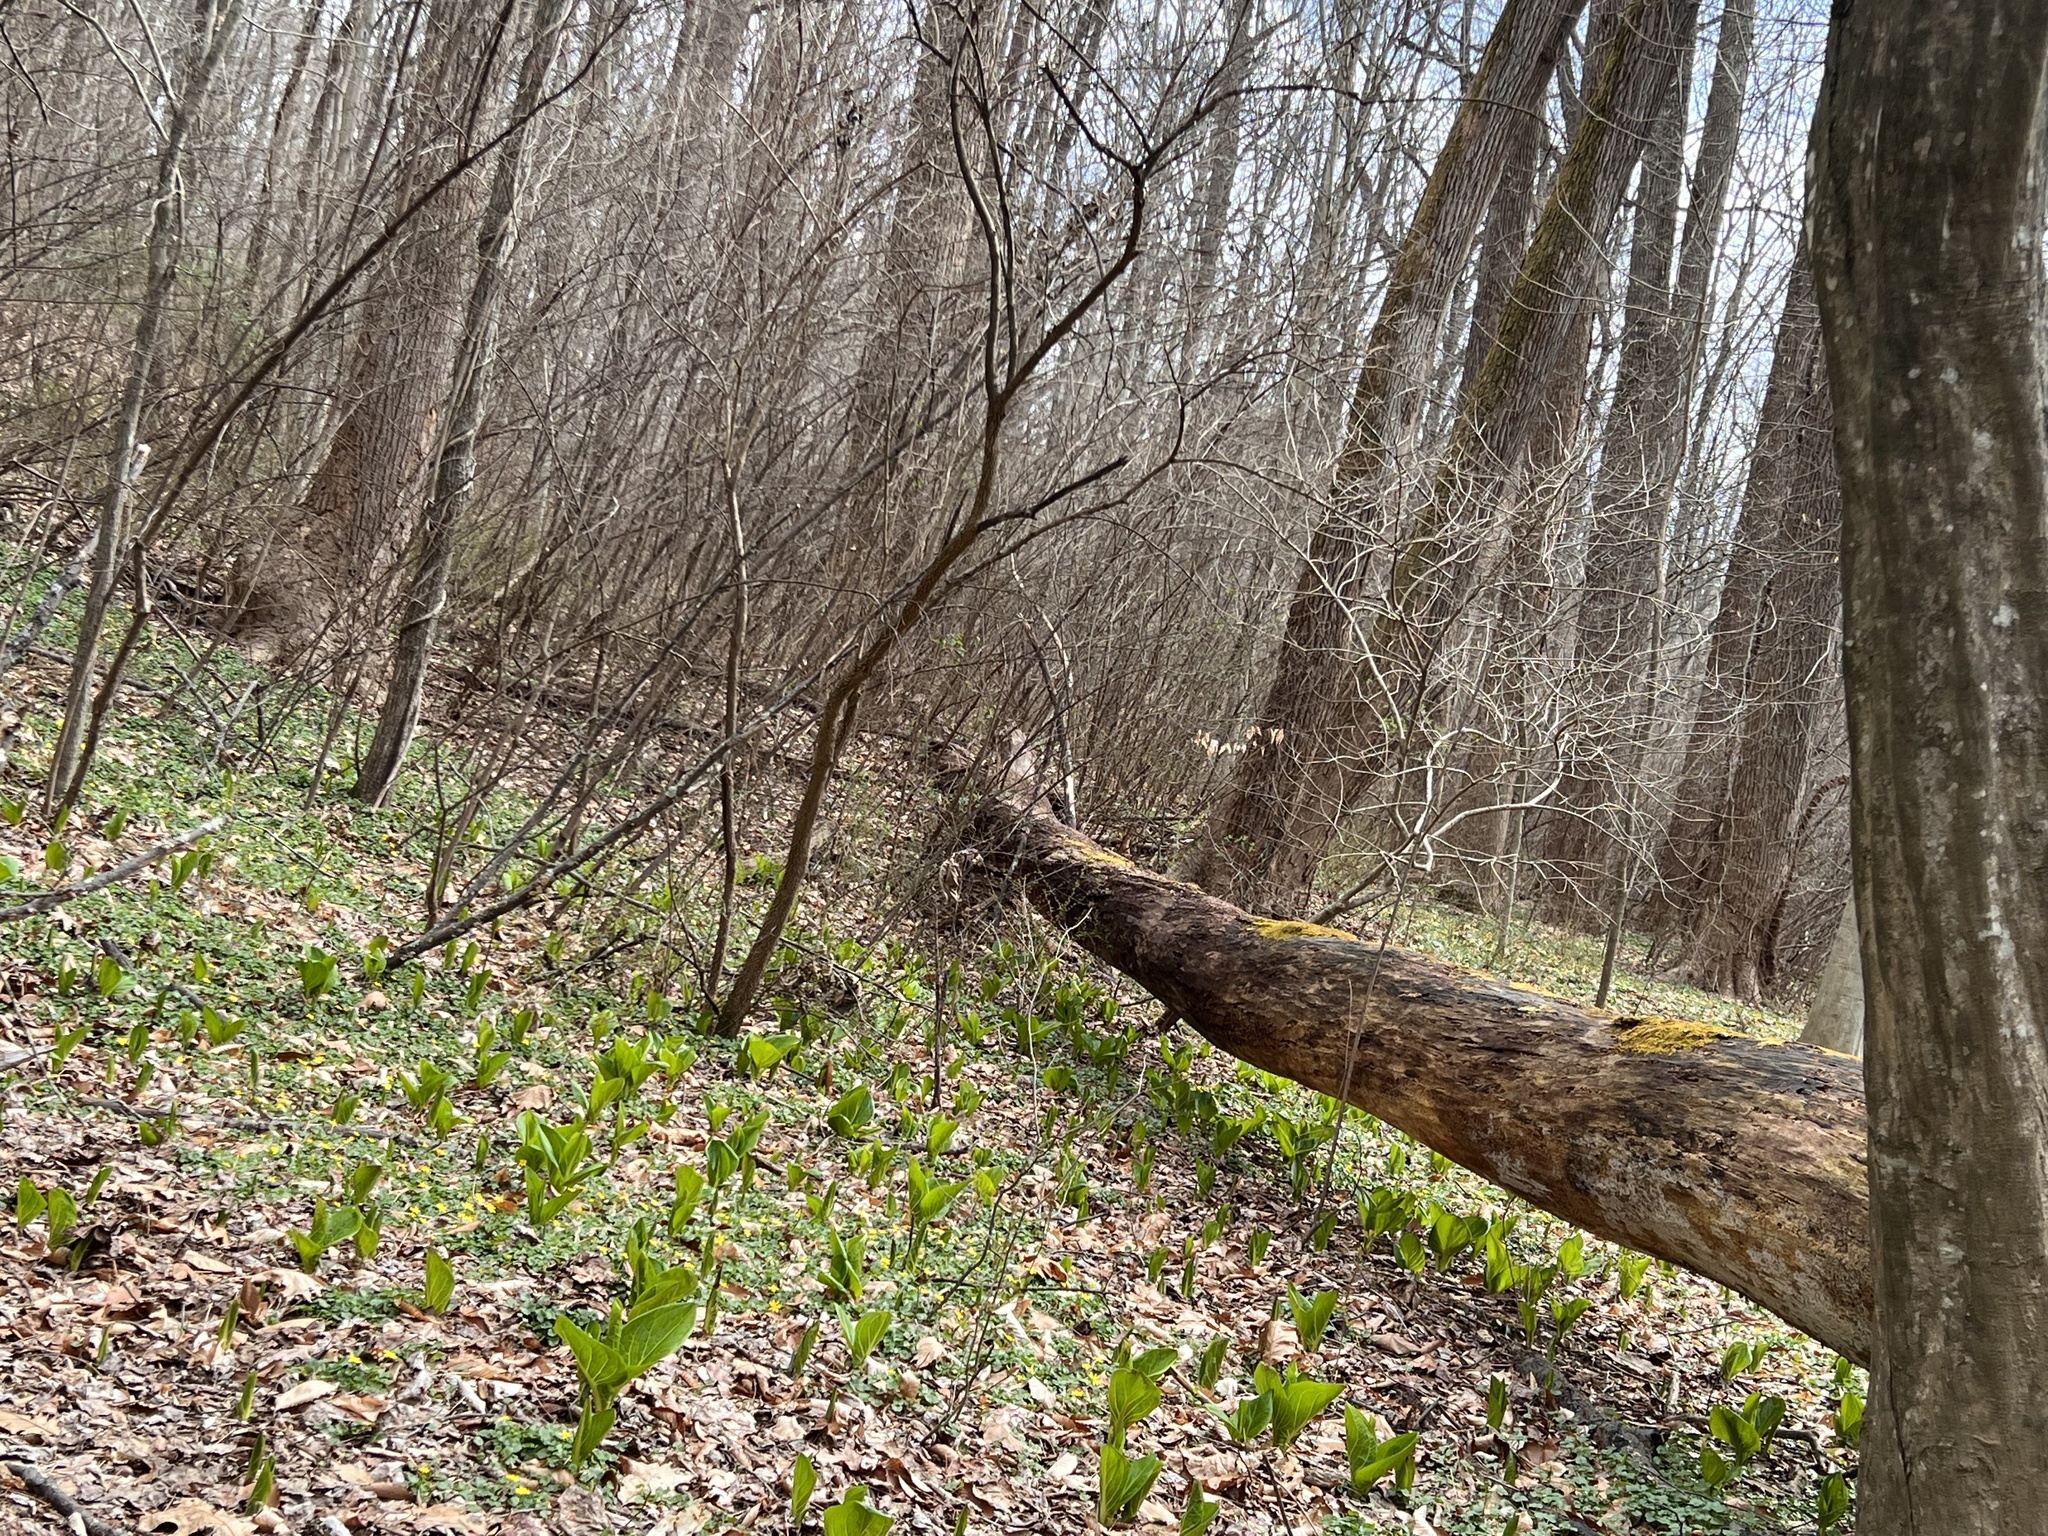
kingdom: Plantae
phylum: Tracheophyta
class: Liliopsida
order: Alismatales
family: Araceae
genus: Symplocarpus
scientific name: Symplocarpus foetidus
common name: Eastern skunk cabbage
